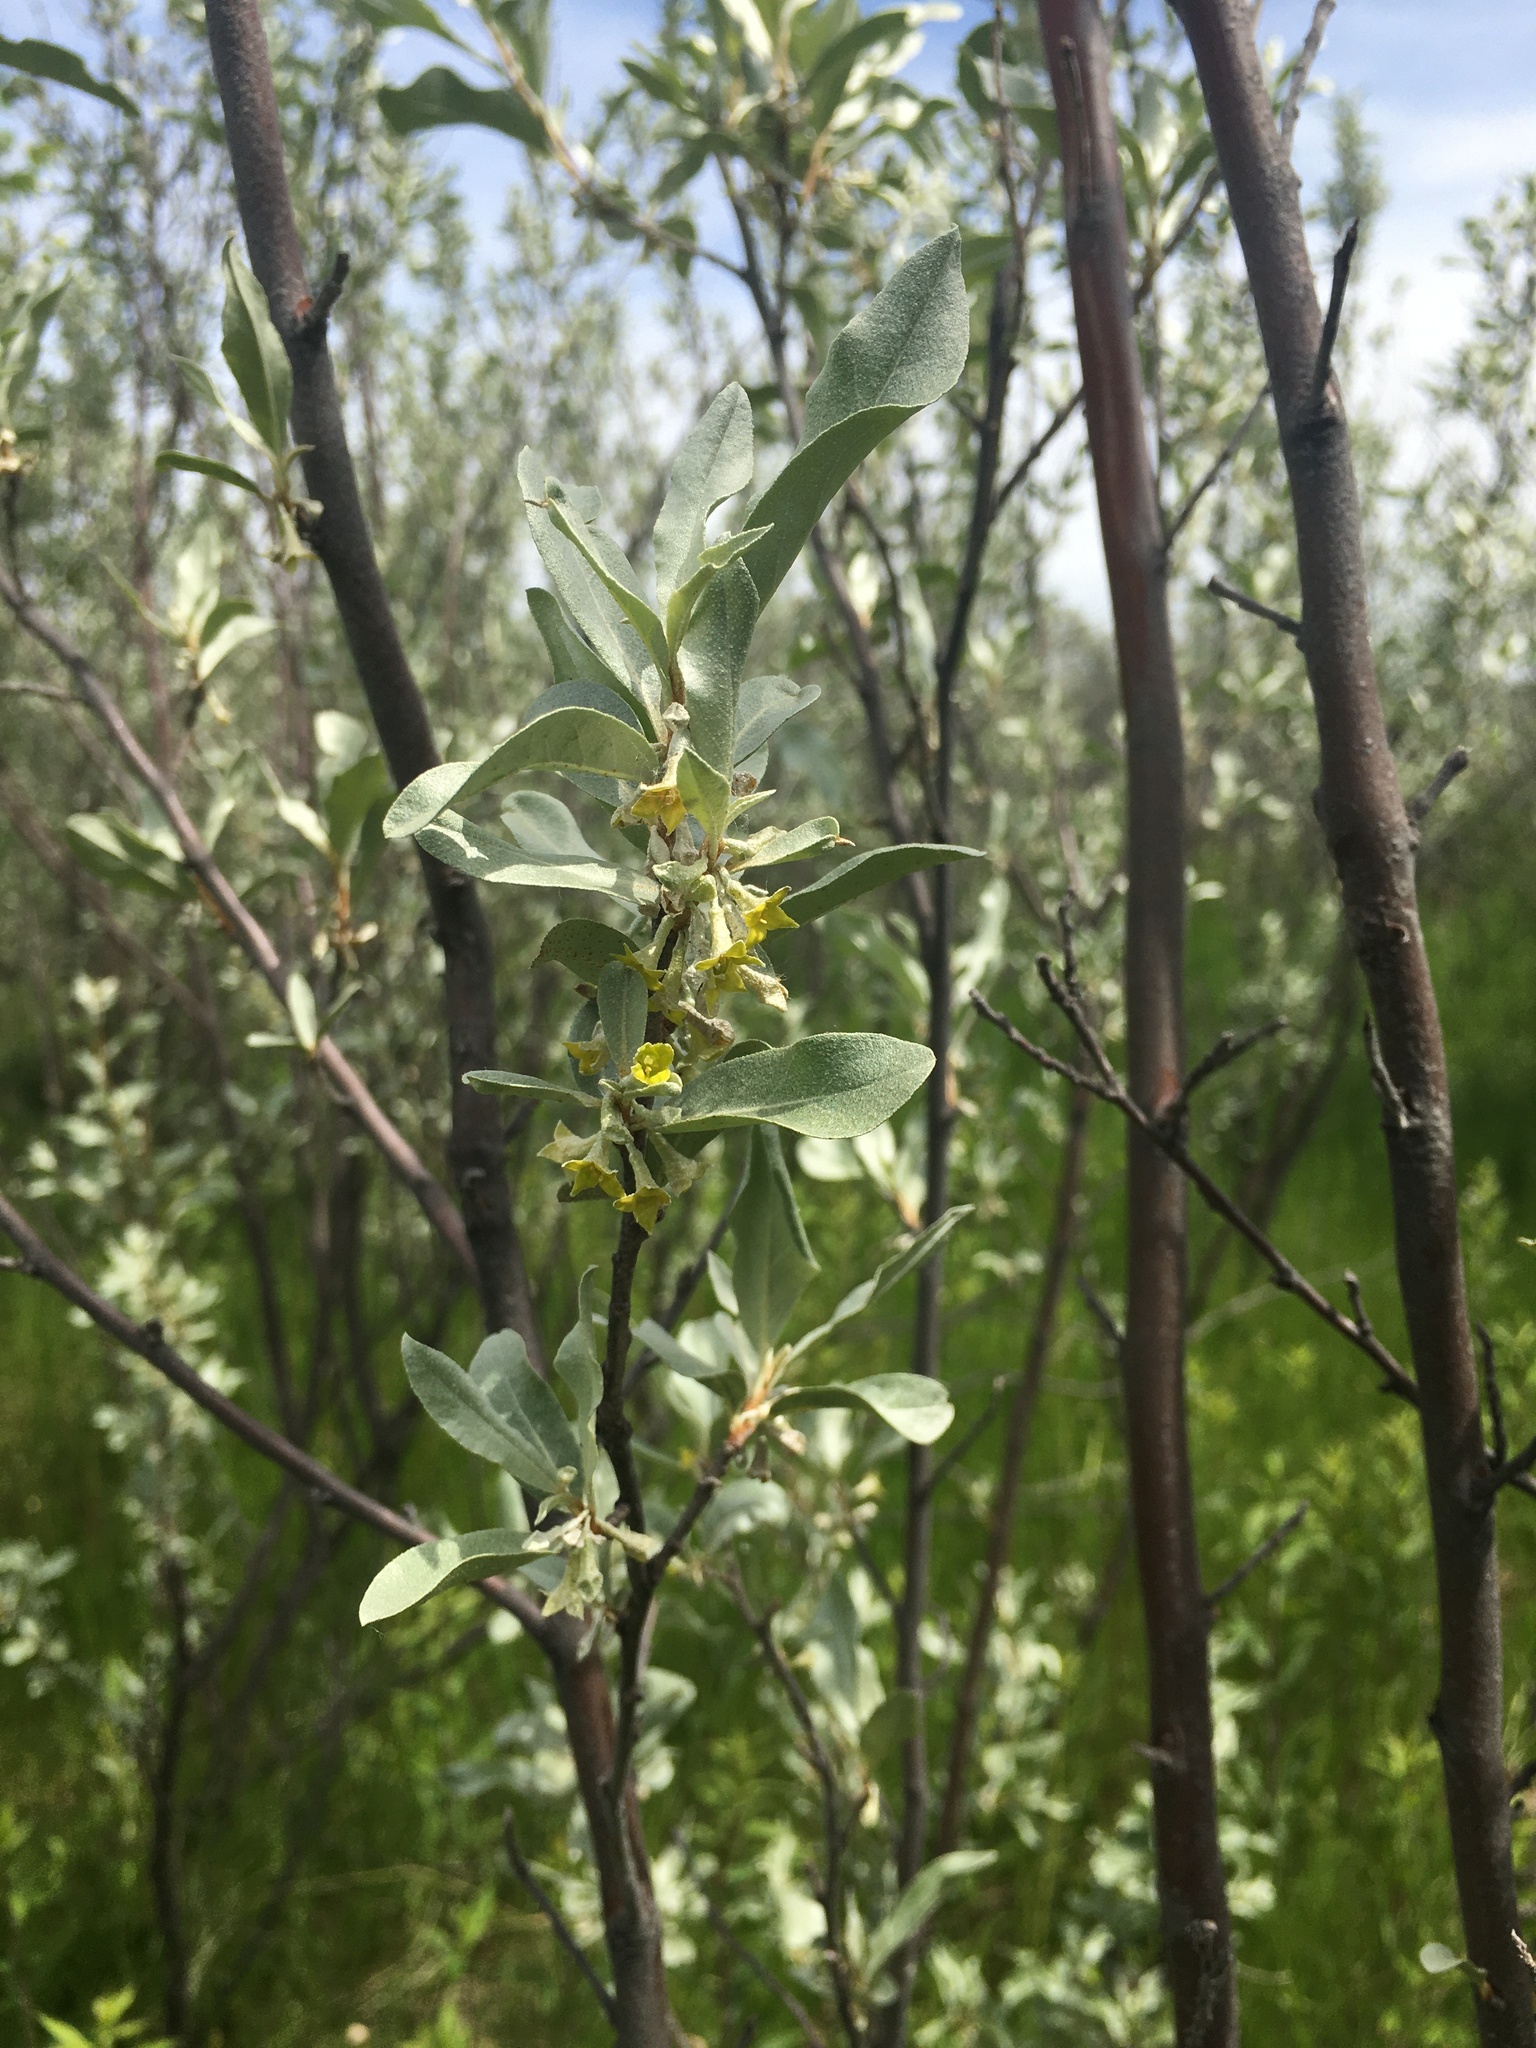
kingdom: Plantae
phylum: Tracheophyta
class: Magnoliopsida
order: Rosales
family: Elaeagnaceae
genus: Elaeagnus
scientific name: Elaeagnus commutata
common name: Silverberry
